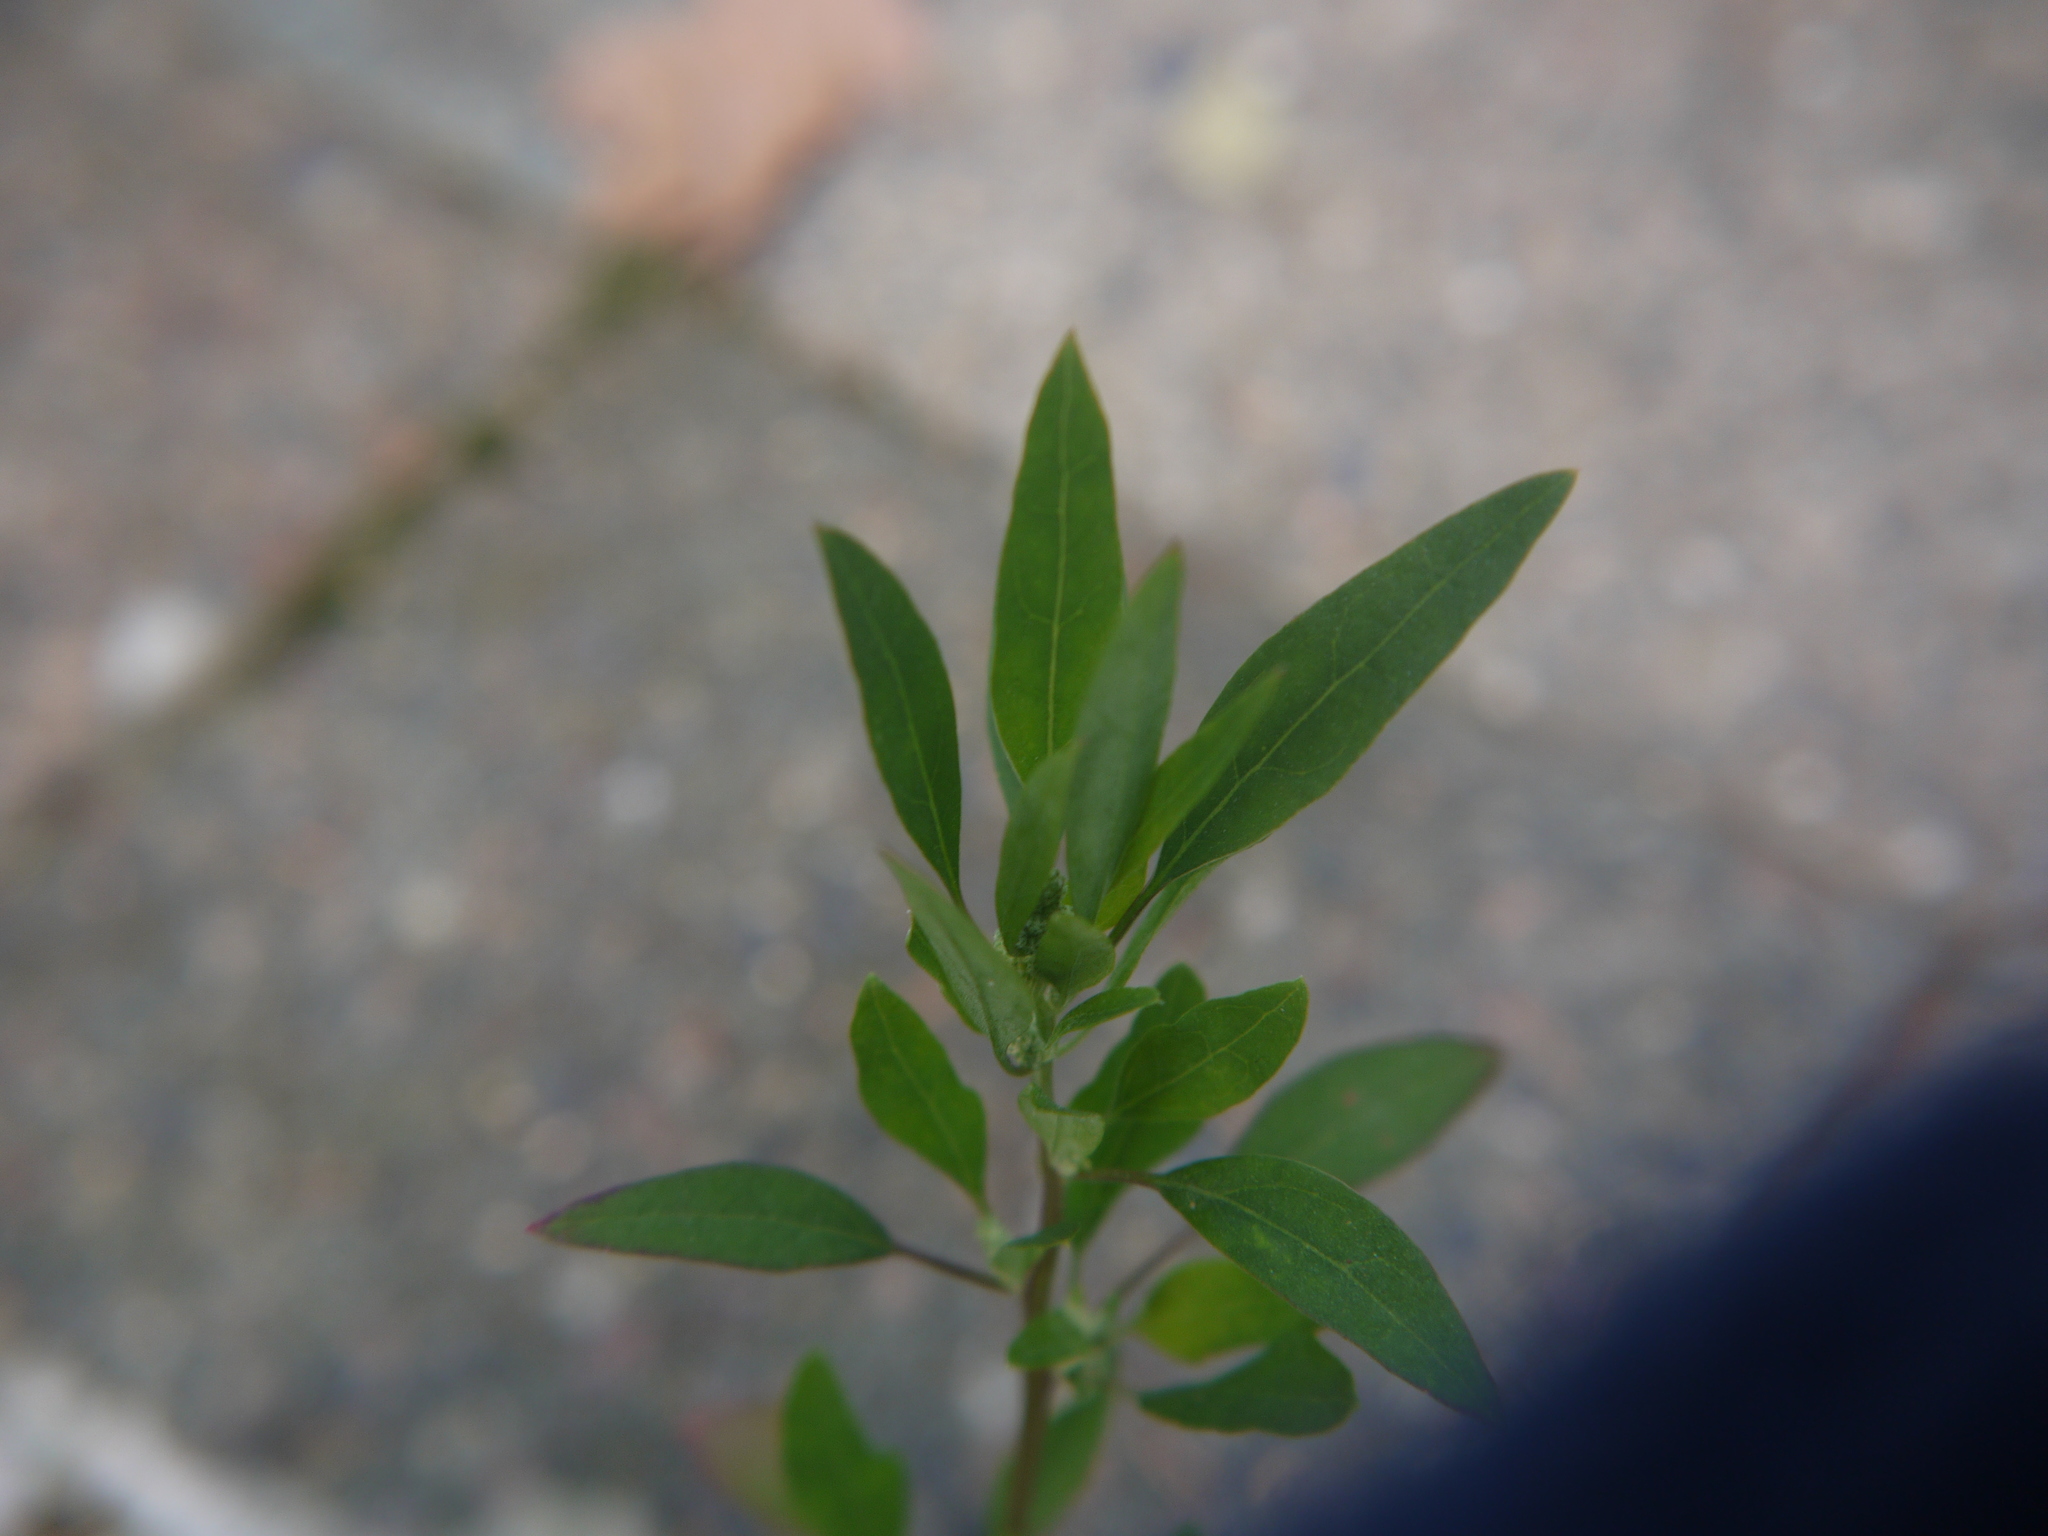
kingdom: Plantae
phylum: Tracheophyta
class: Magnoliopsida
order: Caryophyllales
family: Amaranthaceae
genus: Chenopodium
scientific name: Chenopodium album
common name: Fat-hen
